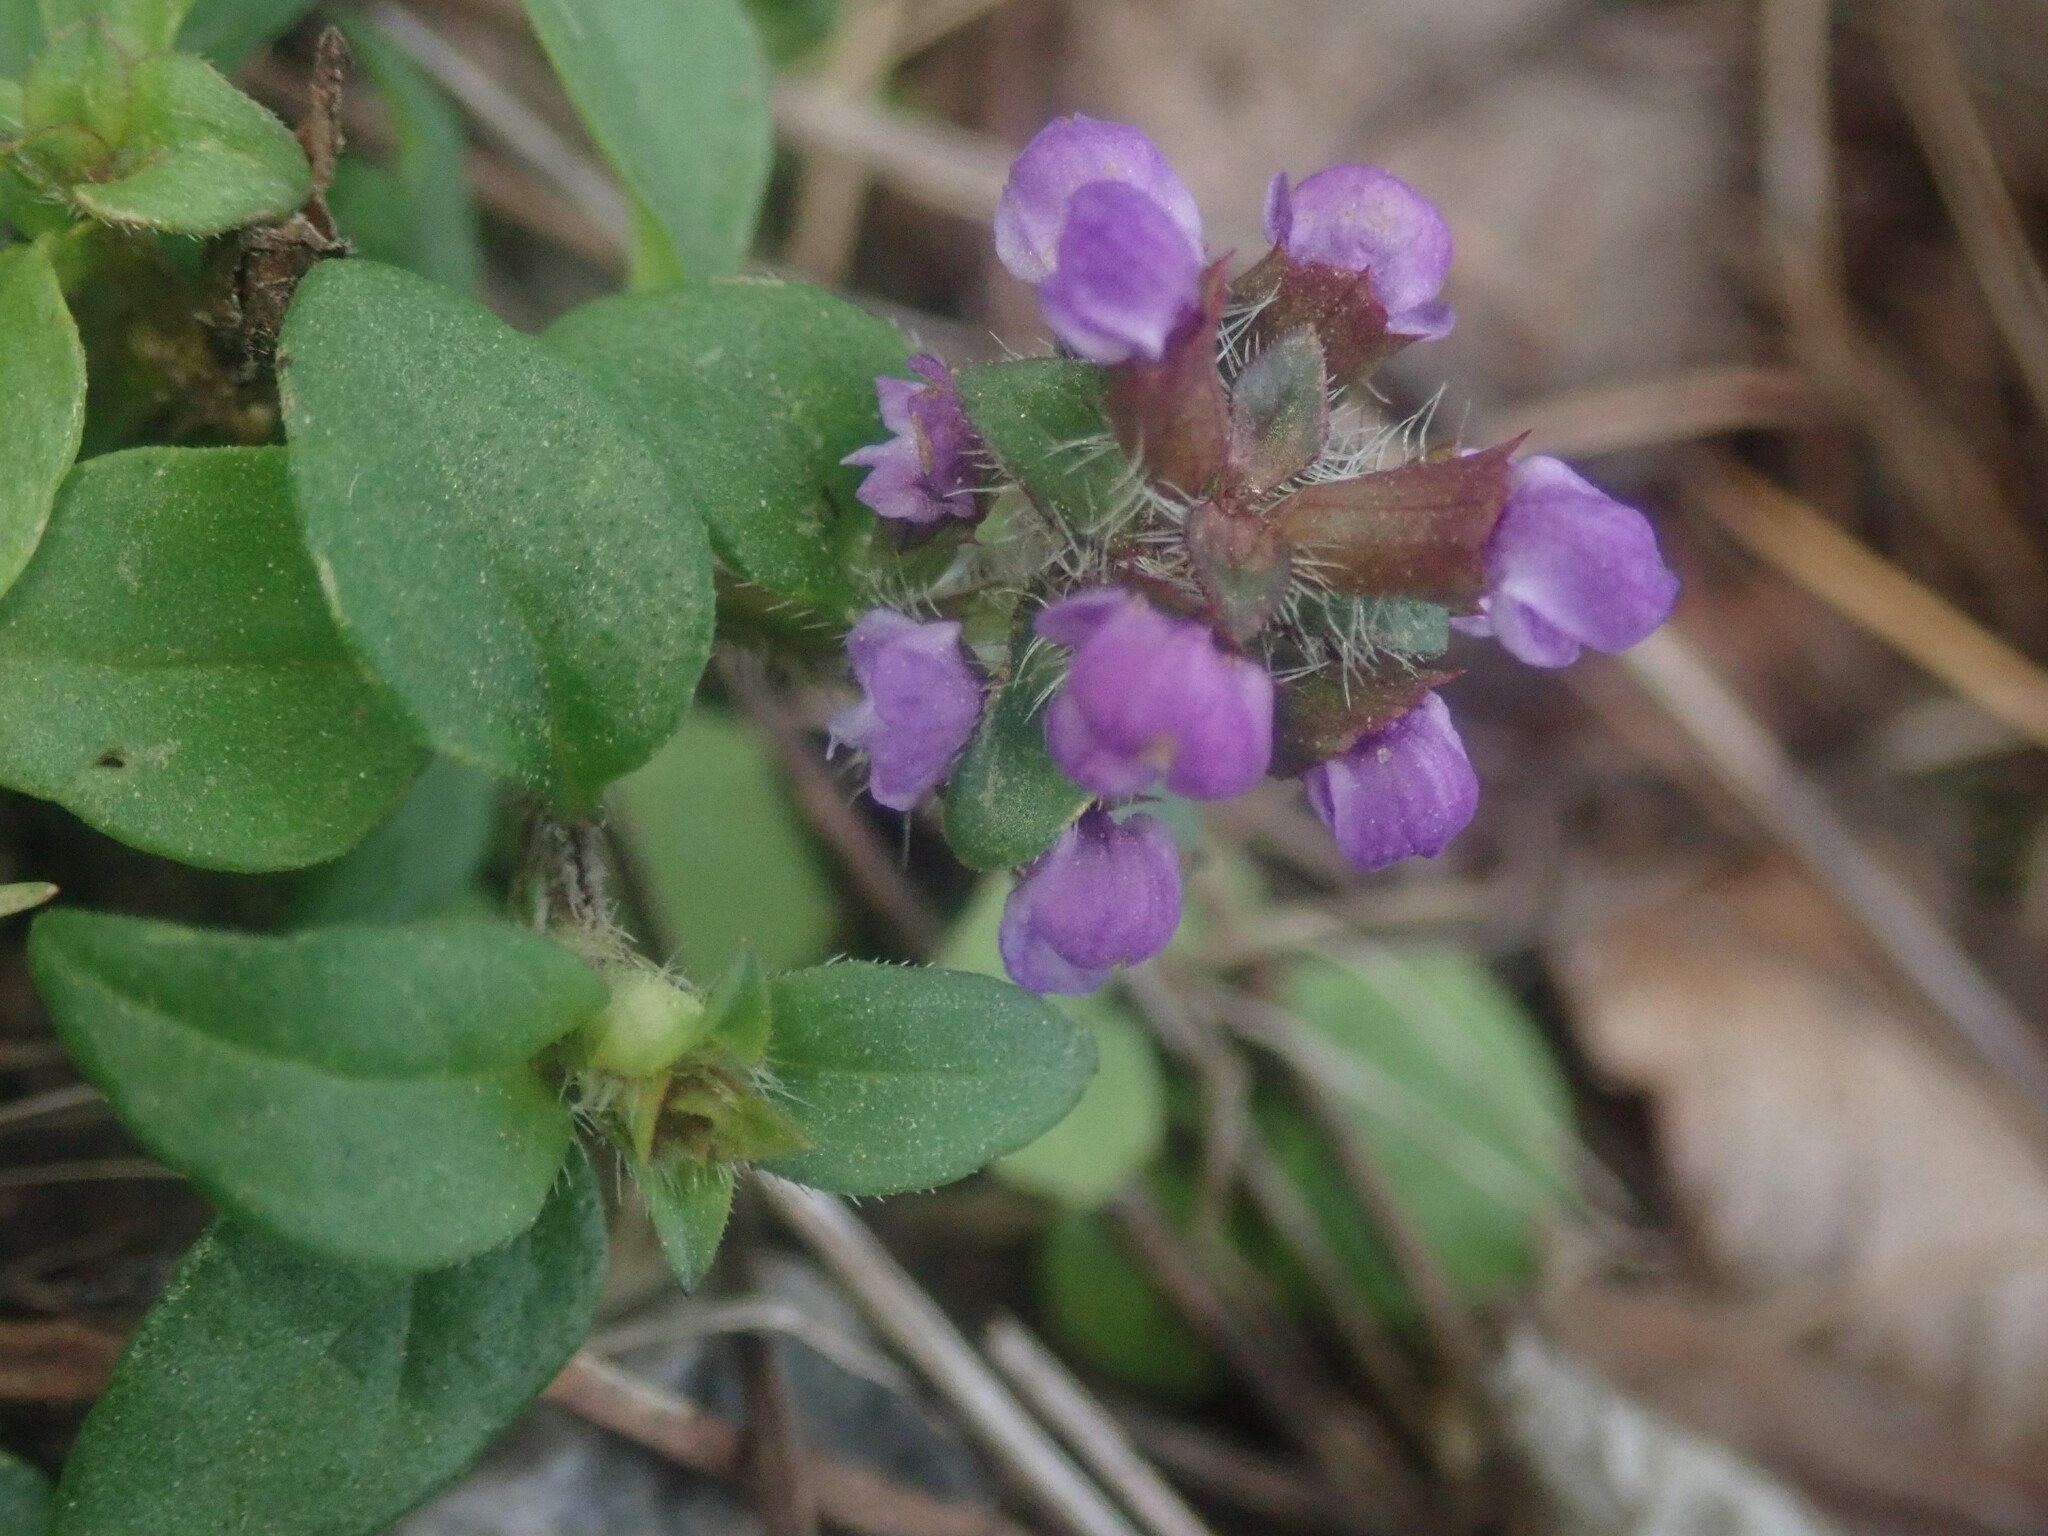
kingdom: Plantae
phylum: Tracheophyta
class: Magnoliopsida
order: Lamiales
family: Lamiaceae
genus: Prunella
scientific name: Prunella vulgaris
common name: Heal-all
